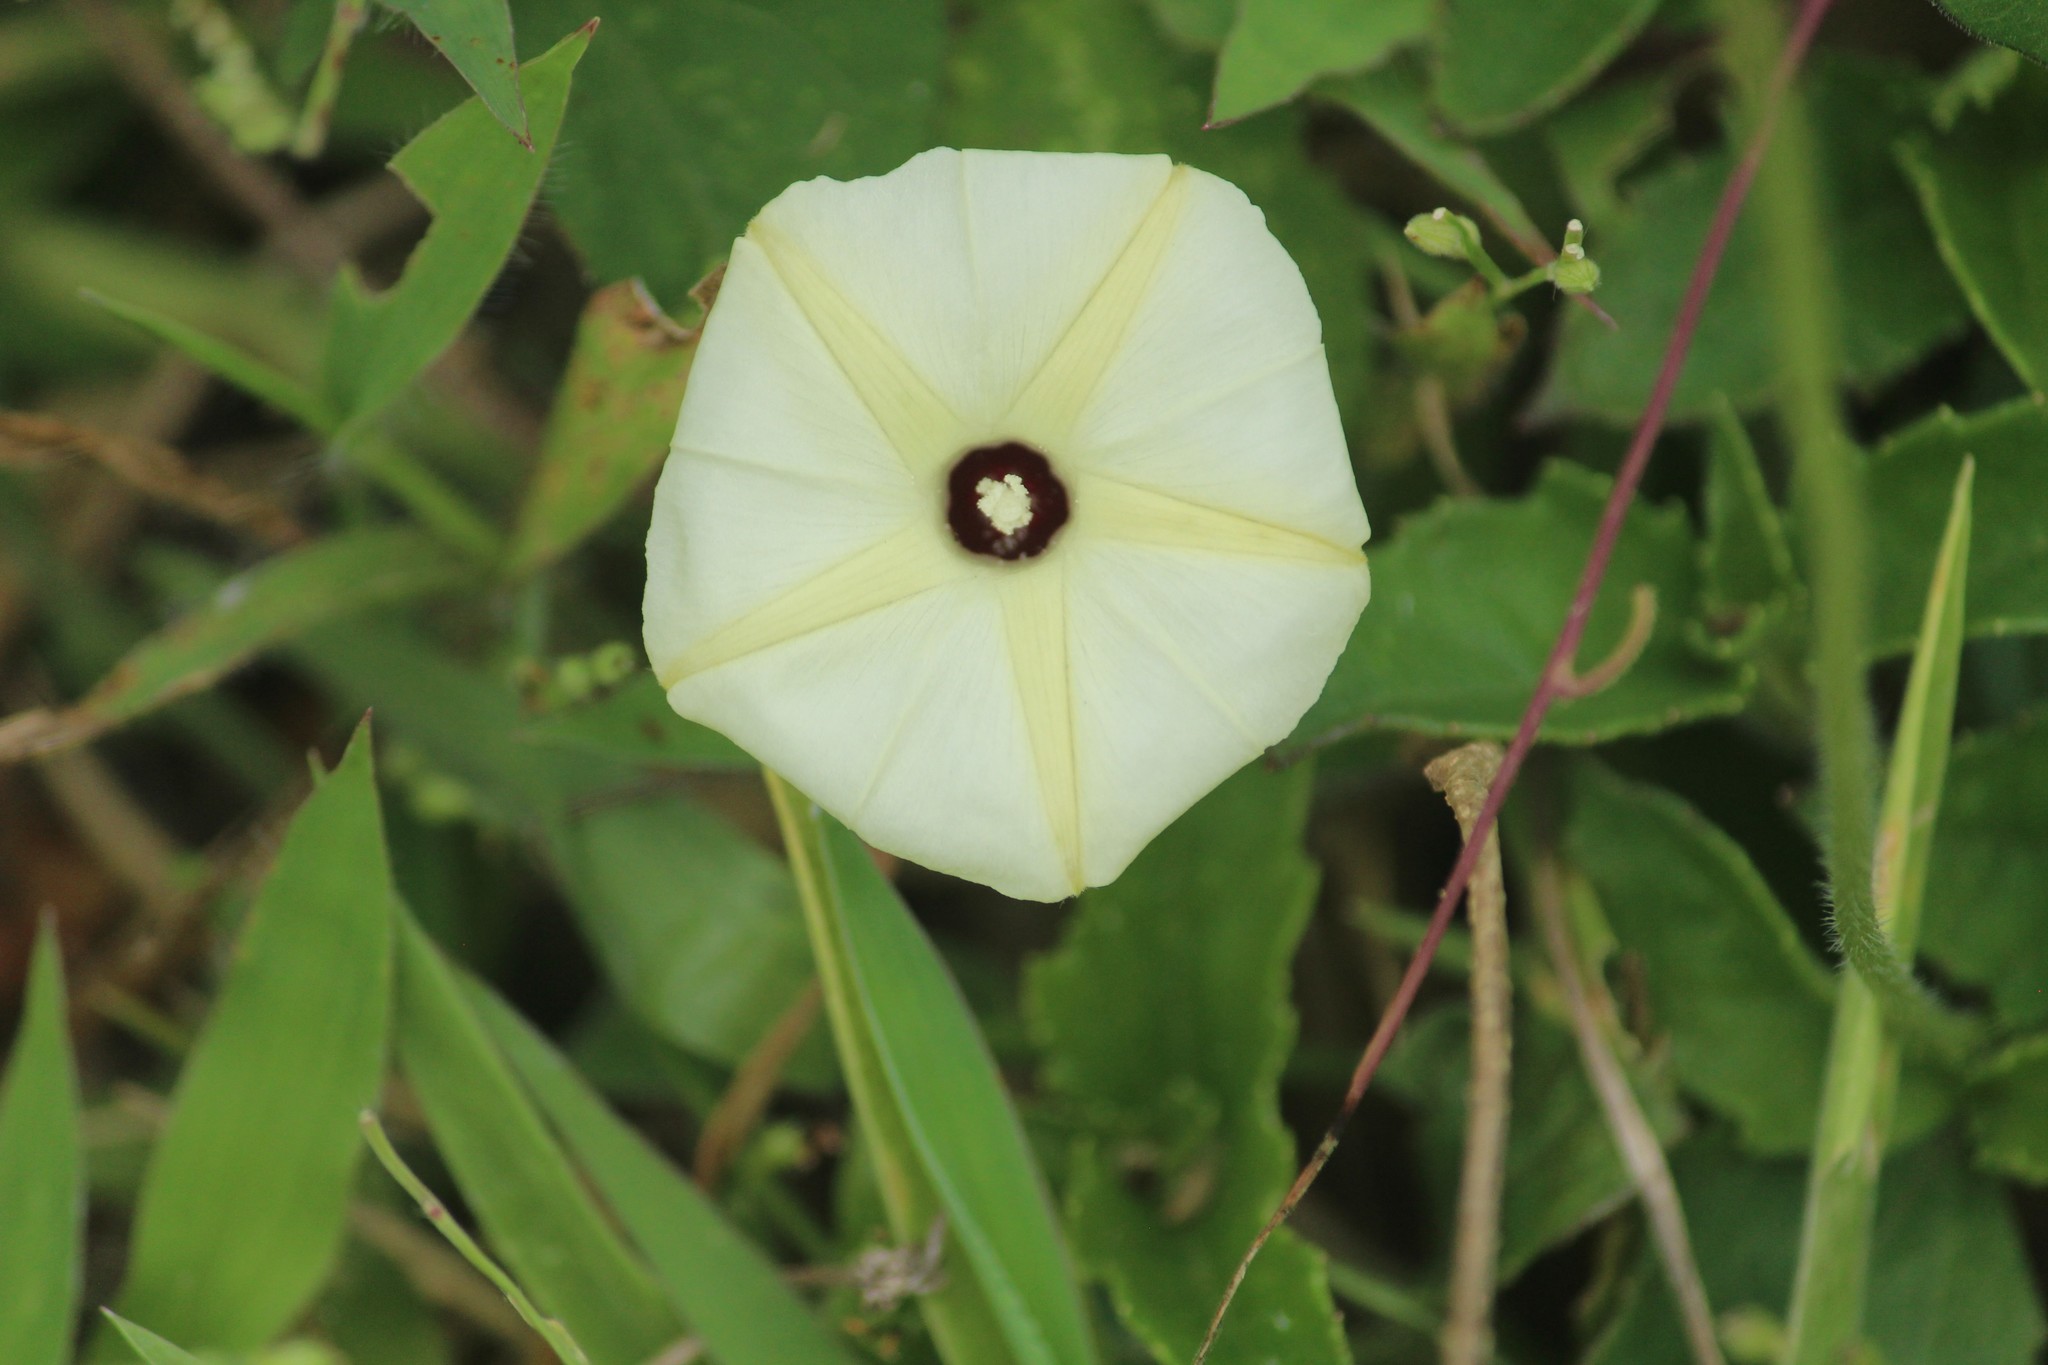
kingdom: Plantae
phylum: Tracheophyta
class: Magnoliopsida
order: Solanales
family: Convolvulaceae
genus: Ipomoea
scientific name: Ipomoea obscura
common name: Obscure morning-glory
